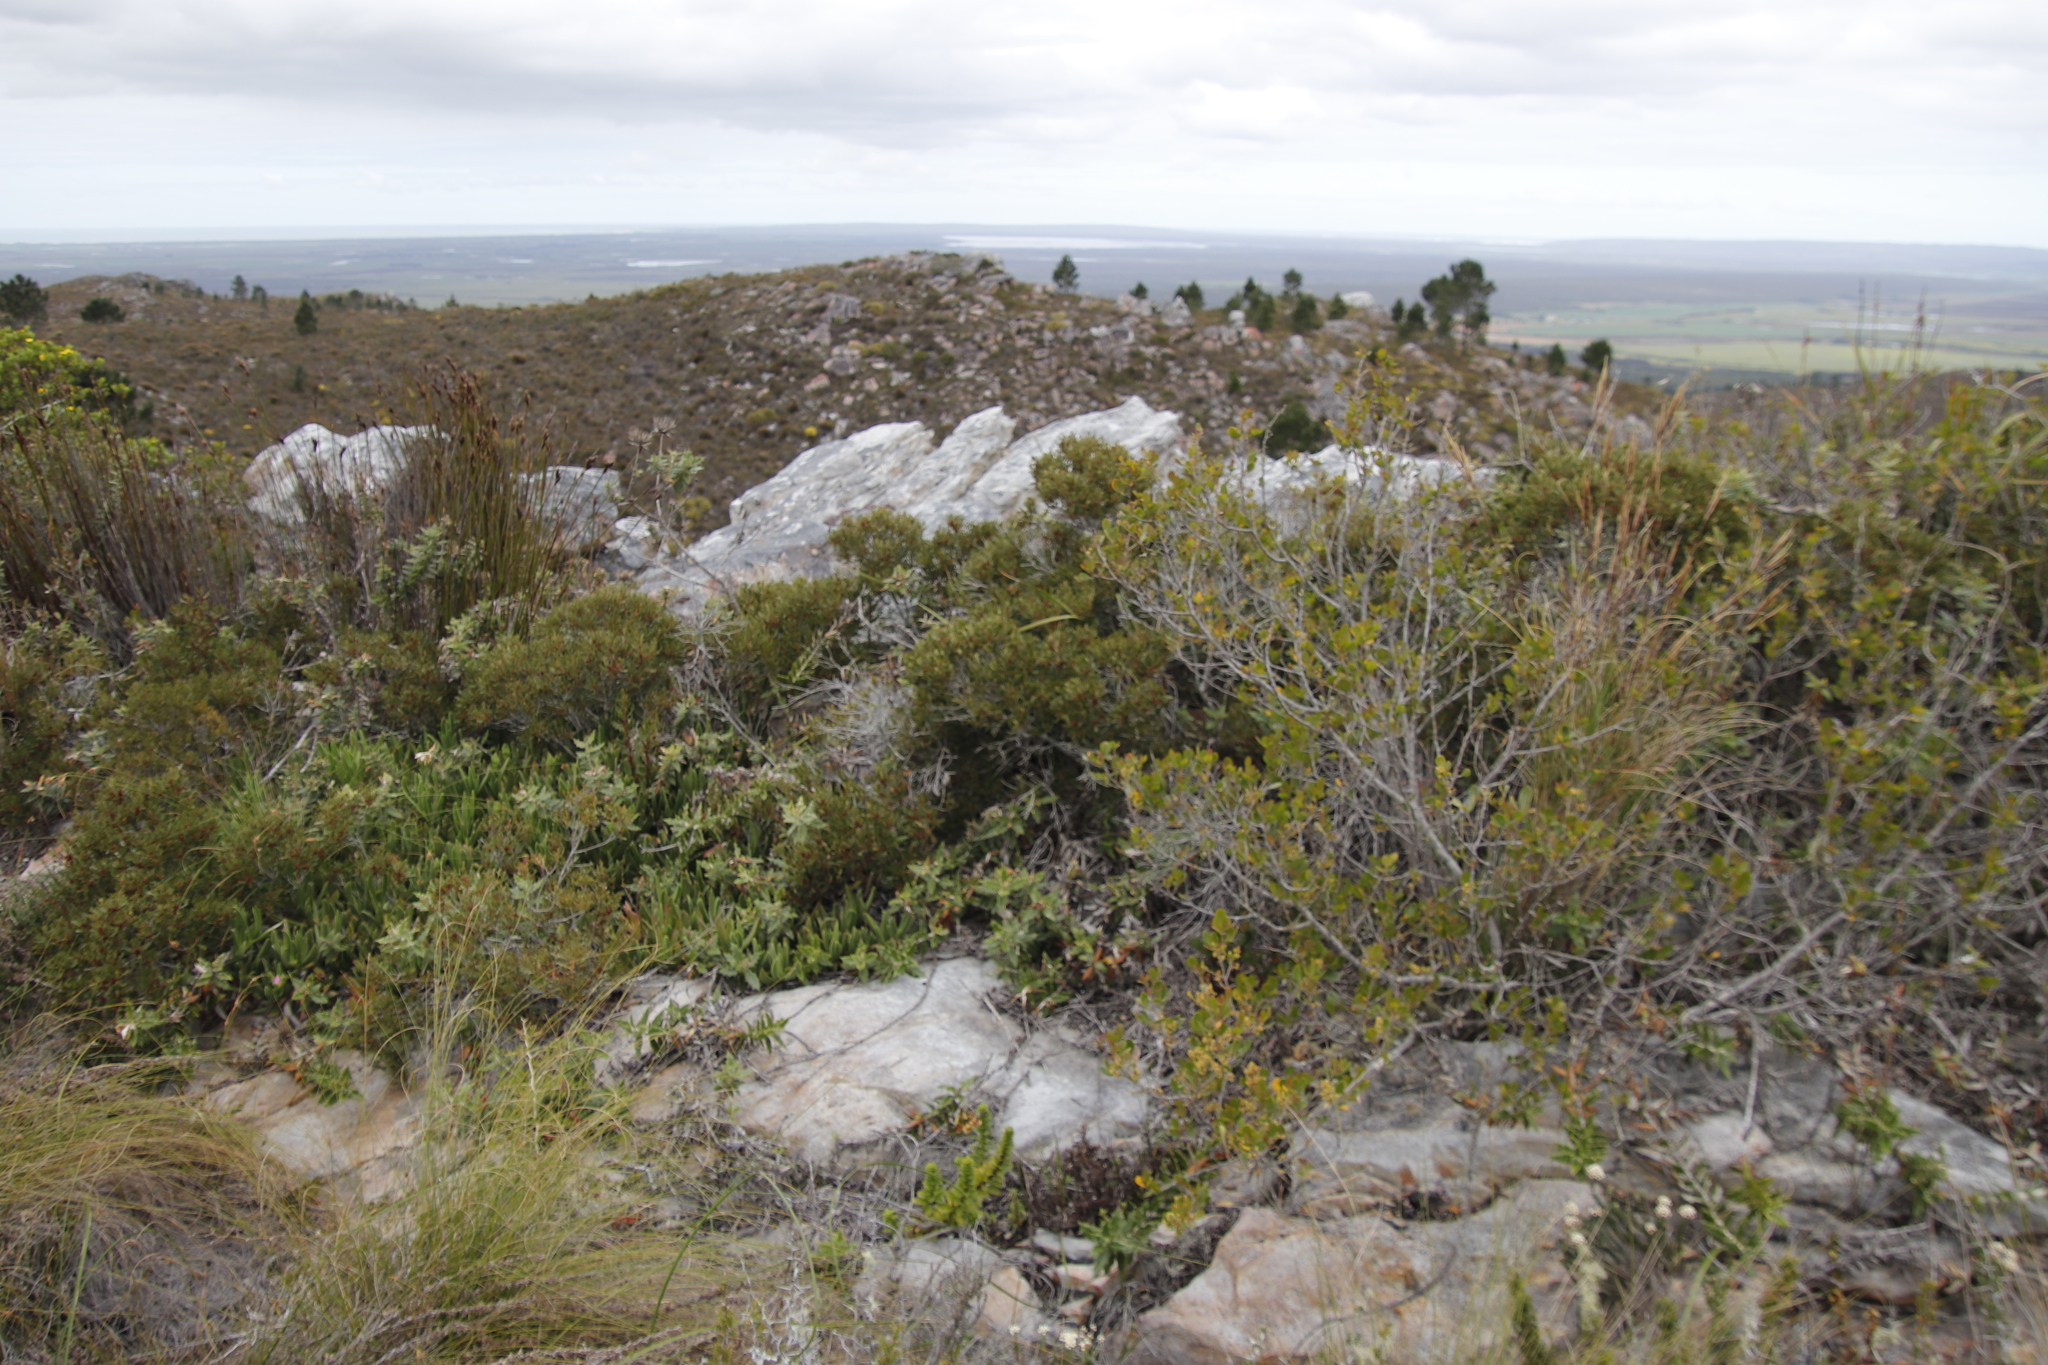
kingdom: Plantae
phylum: Tracheophyta
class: Magnoliopsida
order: Fagales
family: Myricaceae
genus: Morella
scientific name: Morella quercifolia
